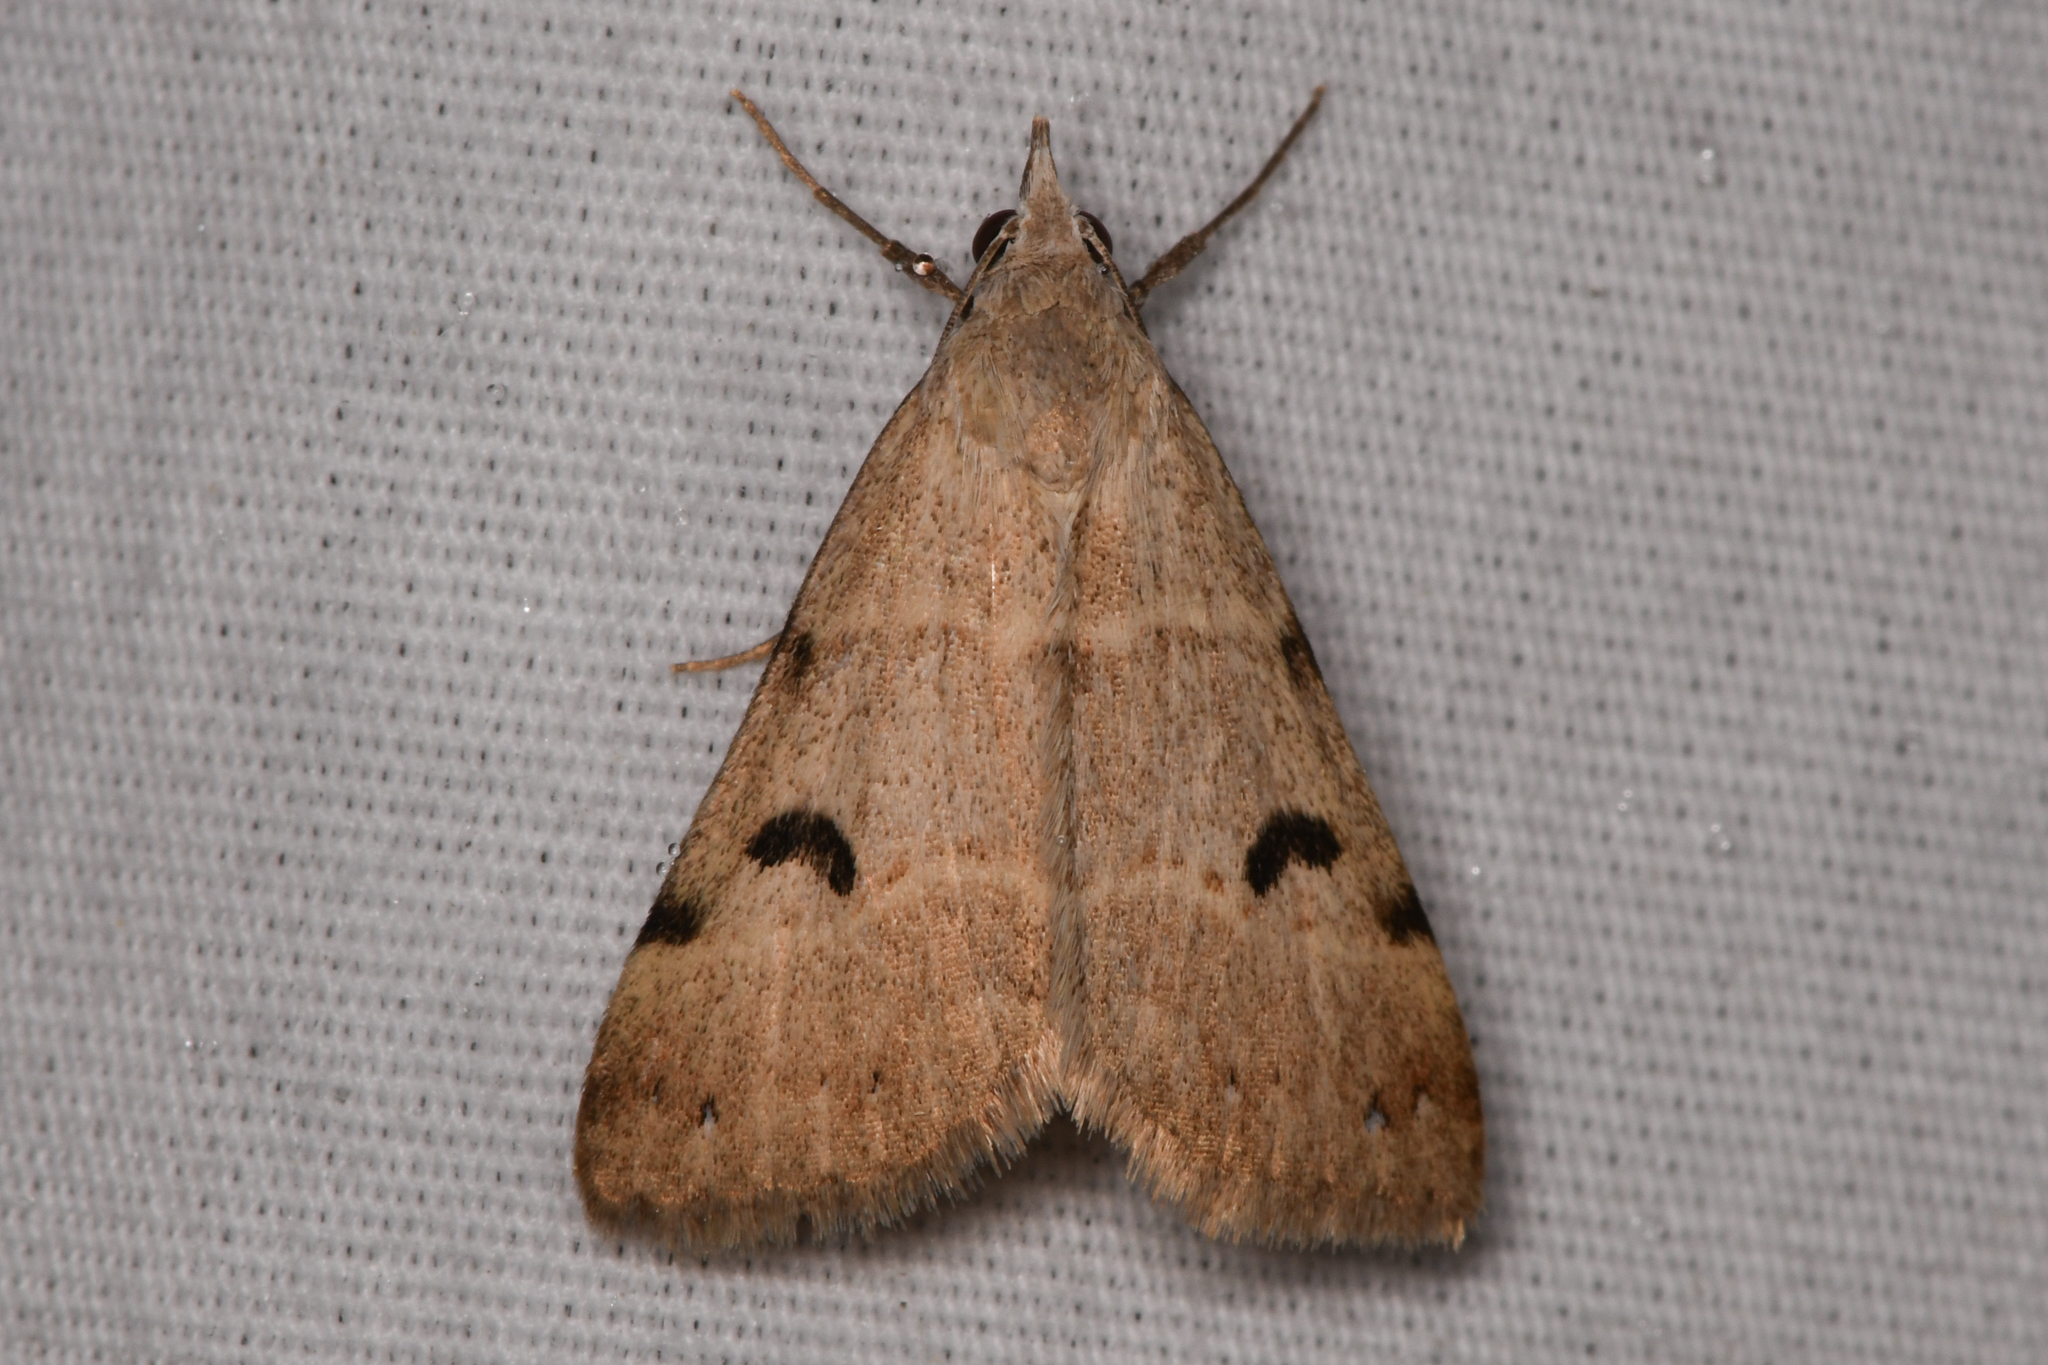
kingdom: Animalia
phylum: Arthropoda
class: Insecta
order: Lepidoptera
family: Erebidae
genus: Hemeroplanis
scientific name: Hemeroplanis historialis
